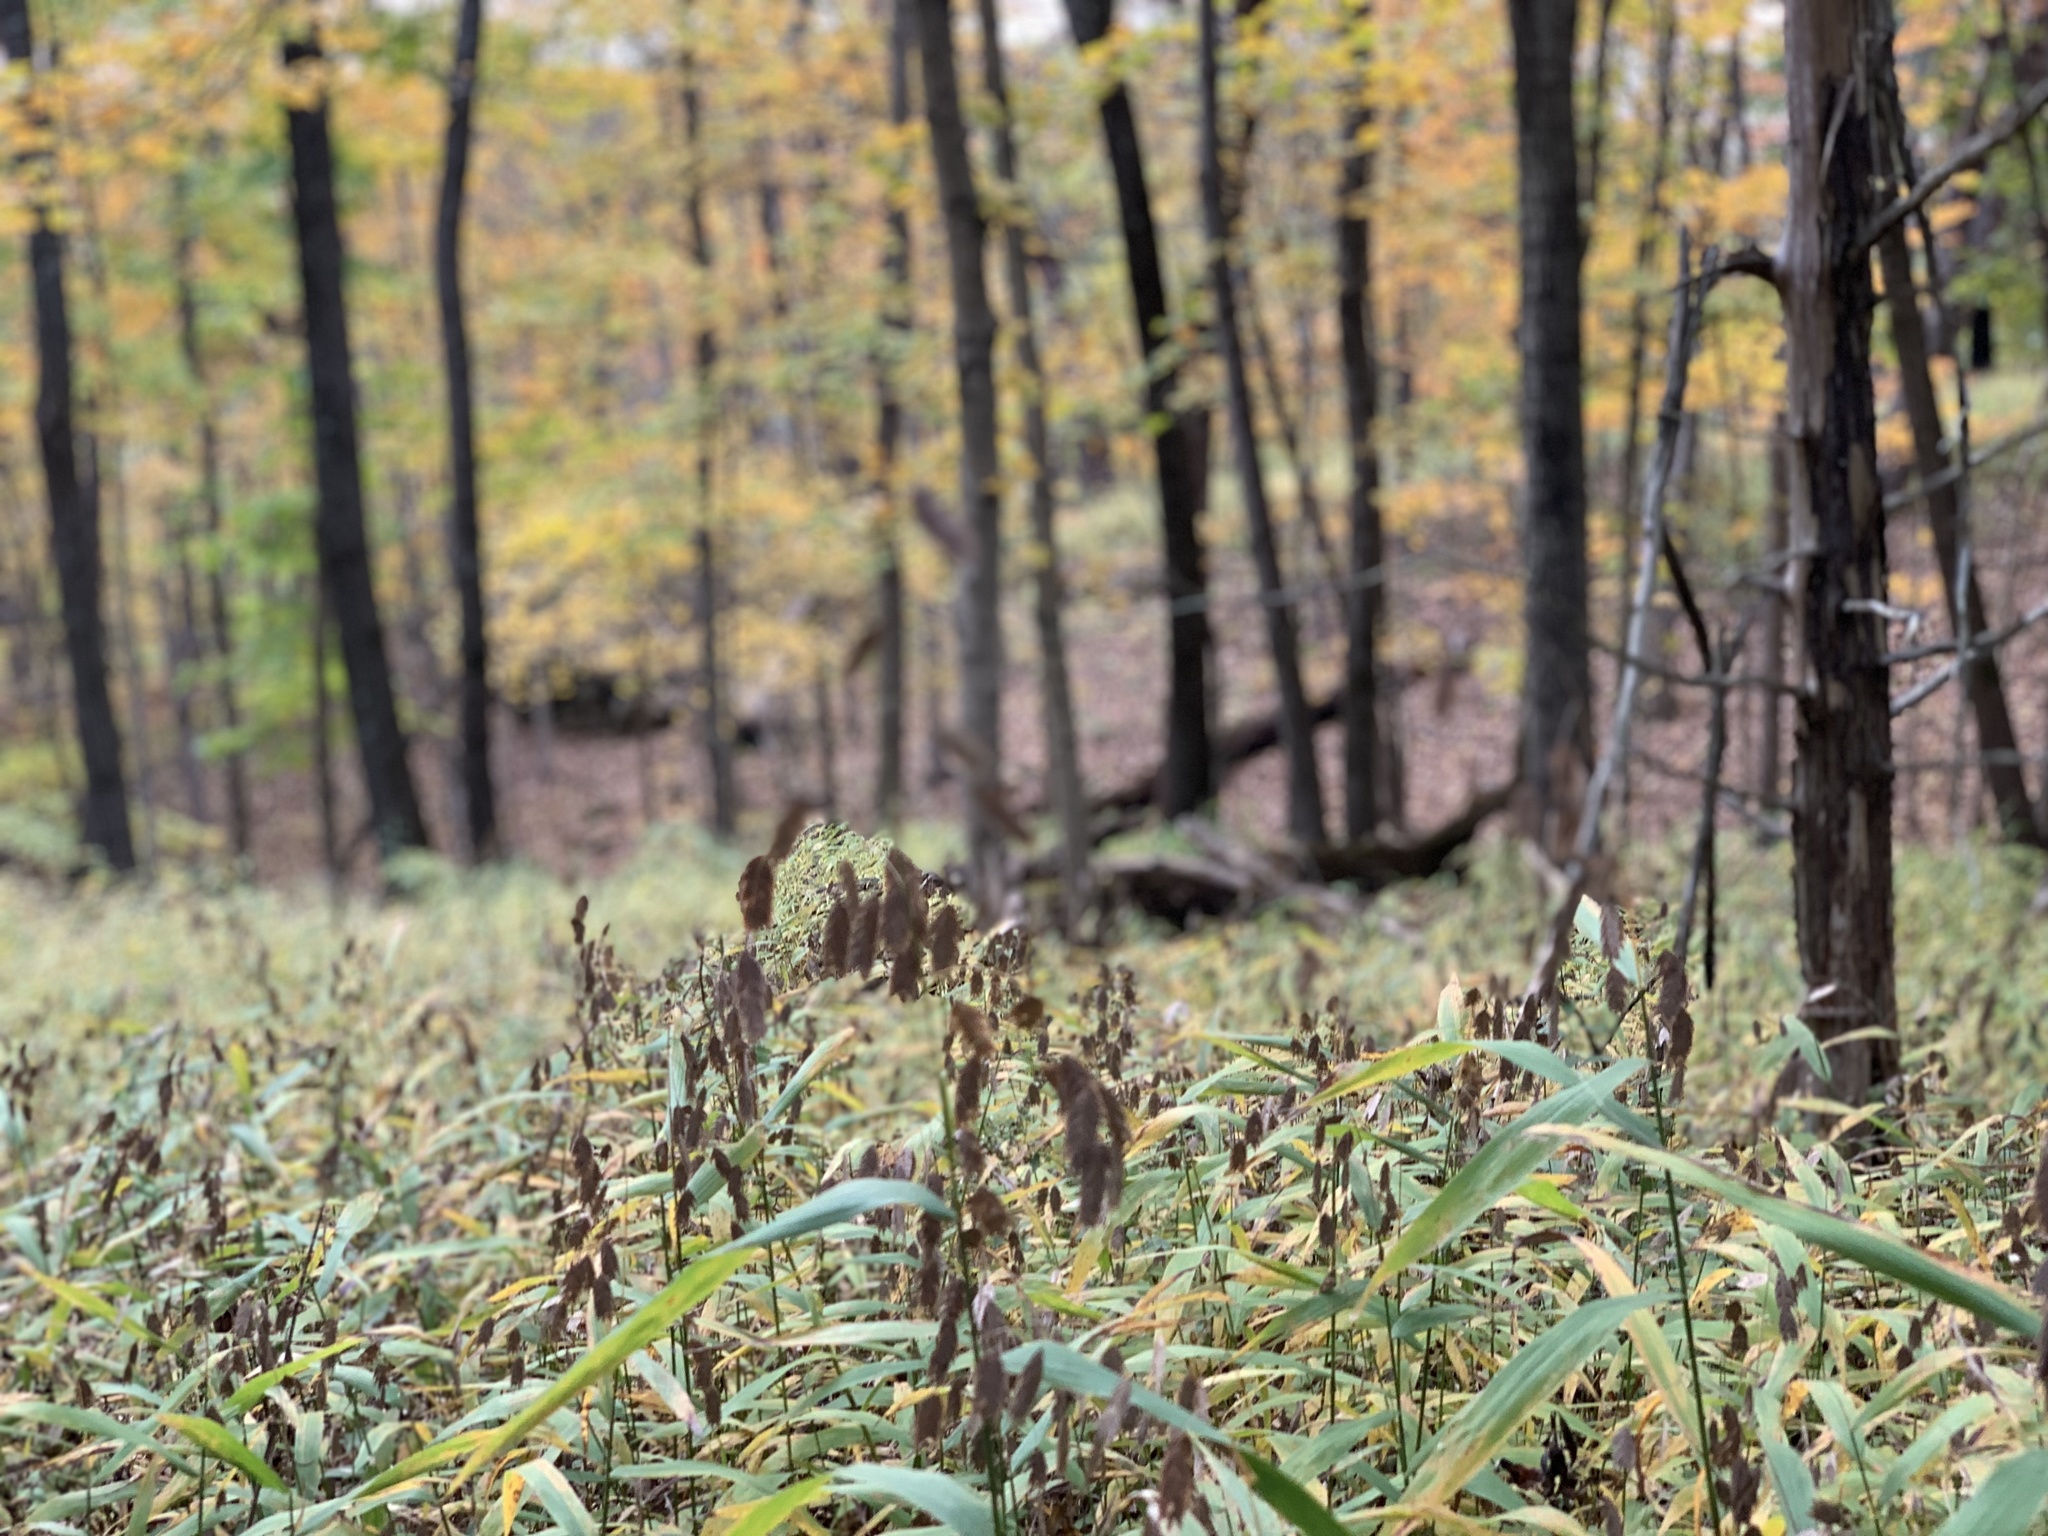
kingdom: Plantae
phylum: Tracheophyta
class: Liliopsida
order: Poales
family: Poaceae
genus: Chasmanthium
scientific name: Chasmanthium latifolium
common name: Broad-leaved chasmanthium
